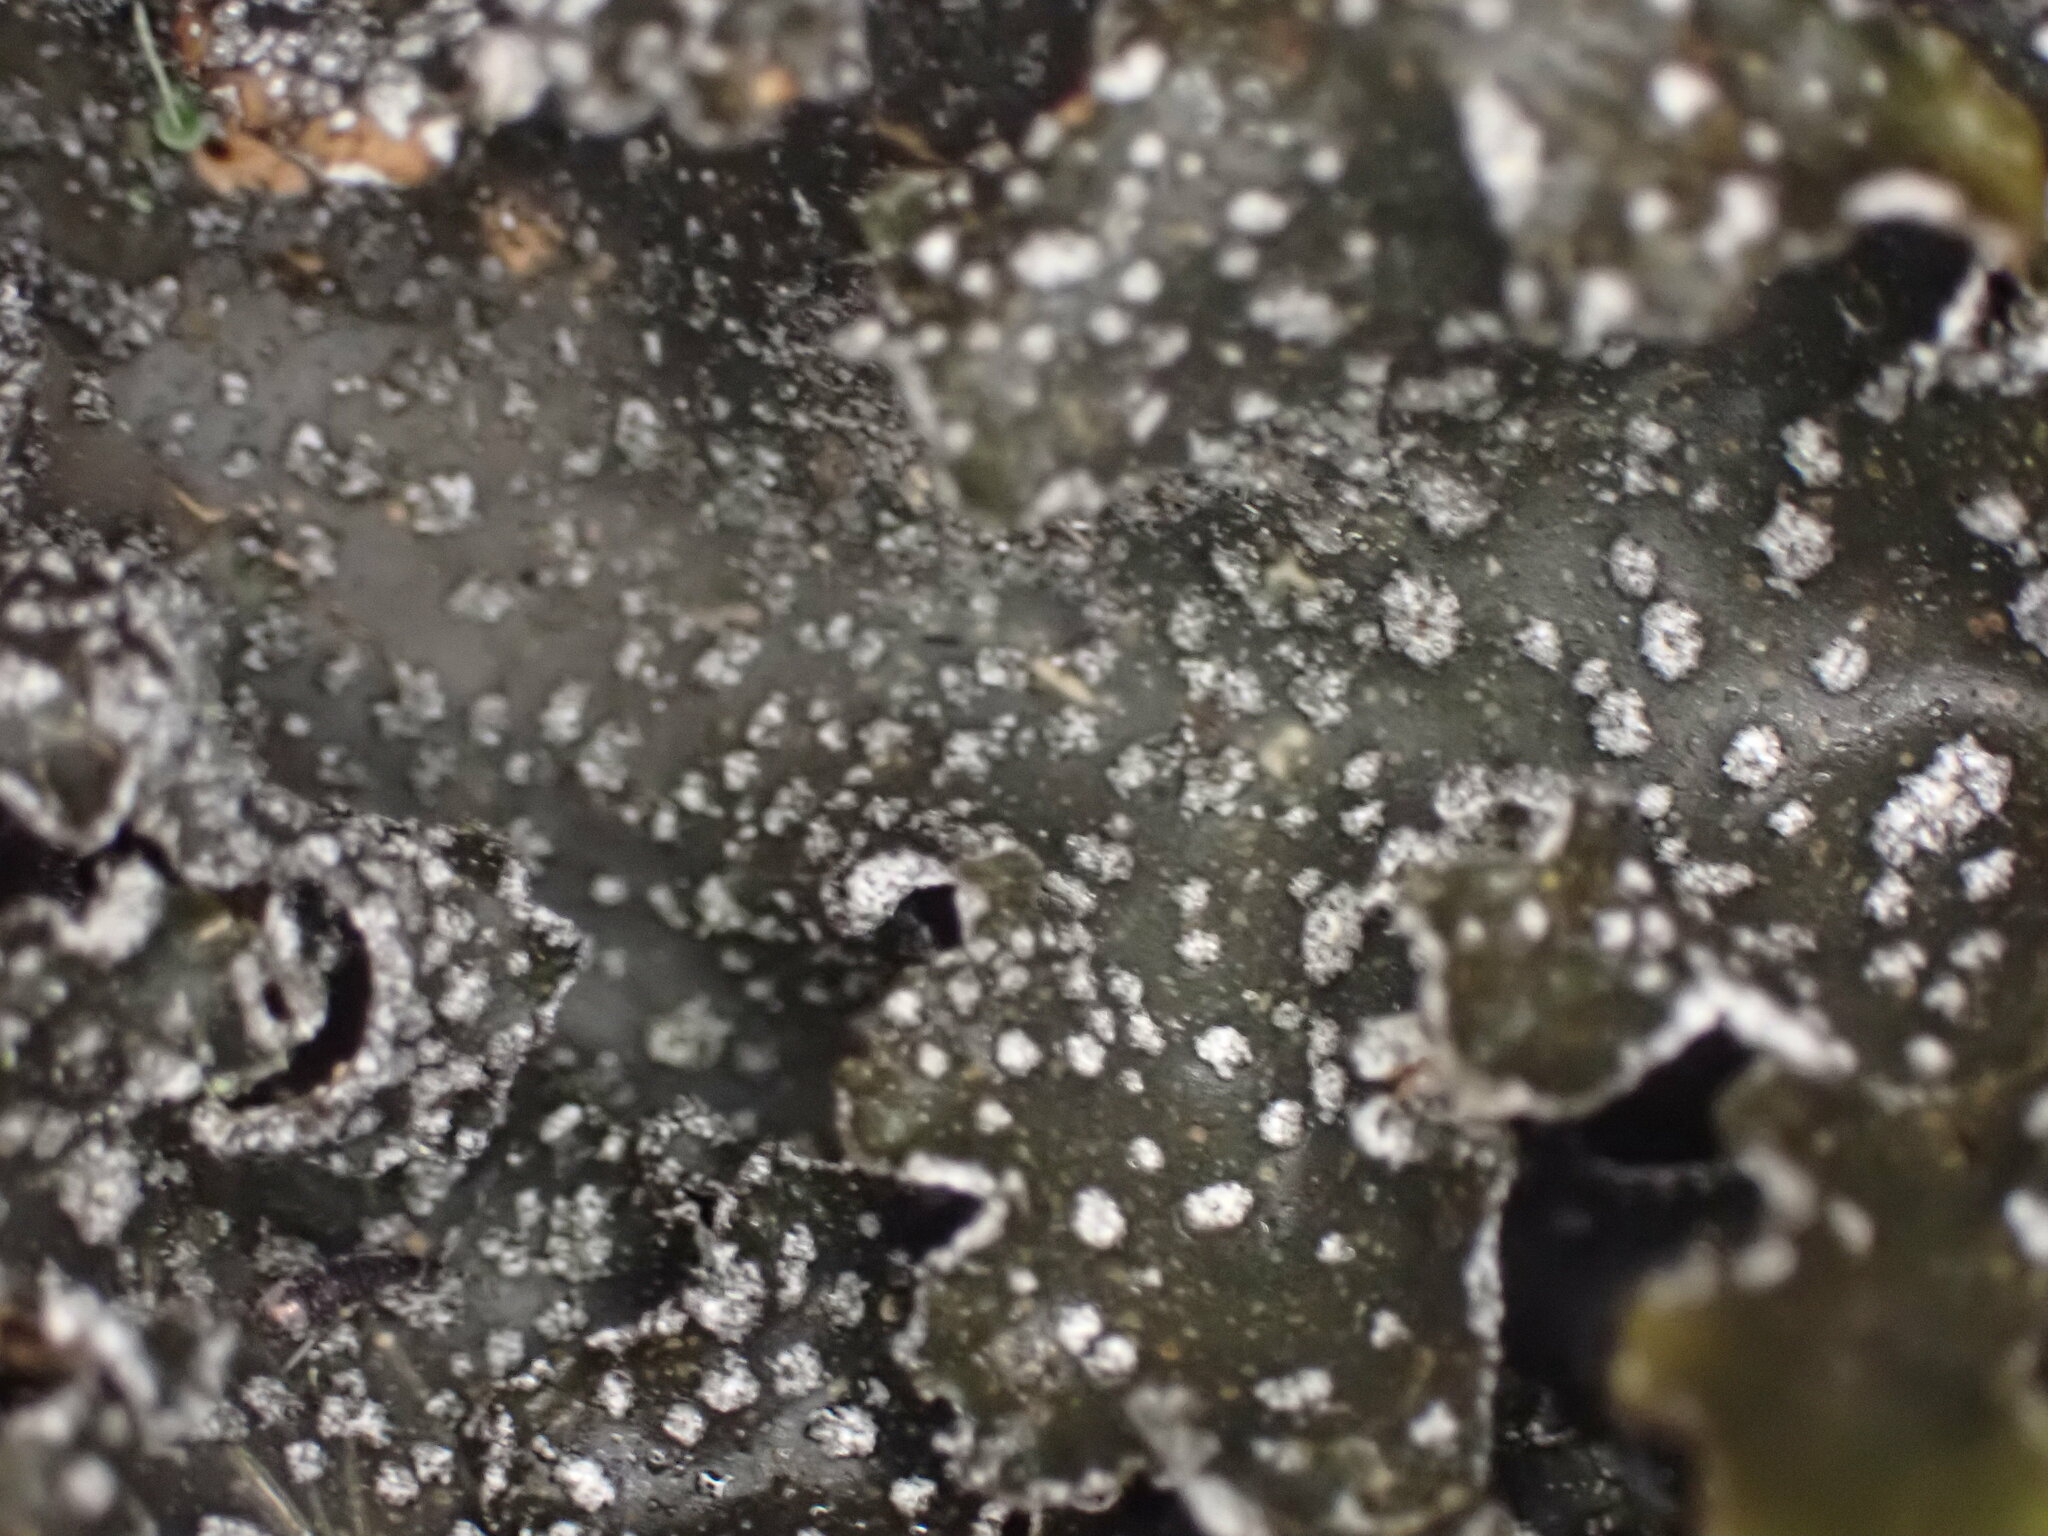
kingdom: Fungi
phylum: Ascomycota
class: Lecanoromycetes
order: Peltigerales
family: Lobariaceae
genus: Pseudocyphellaria
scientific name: Pseudocyphellaria intricata
